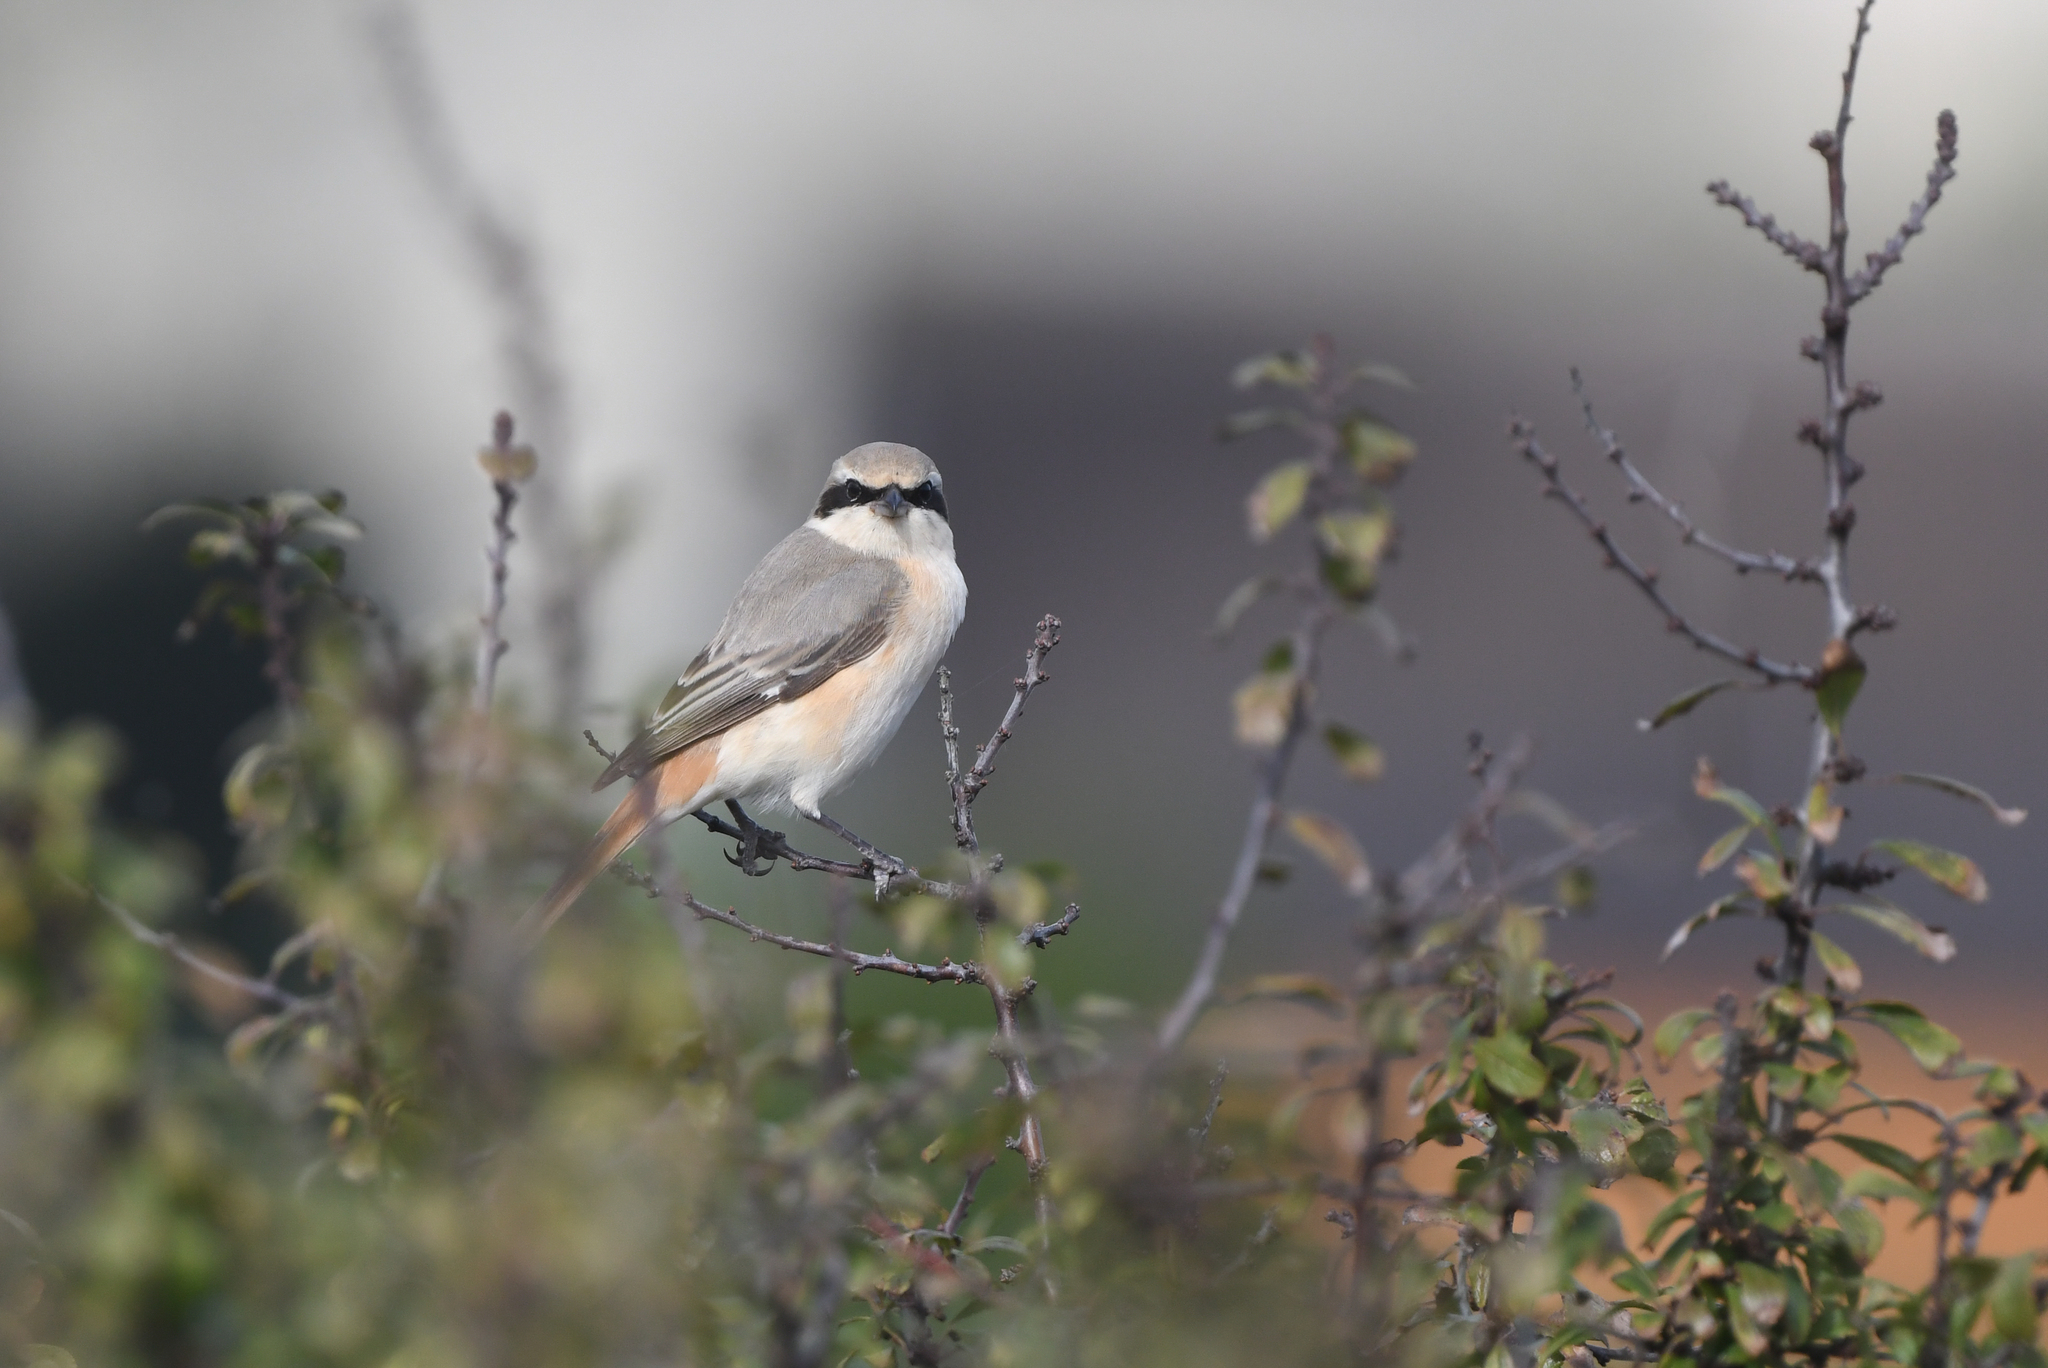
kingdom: Animalia
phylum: Chordata
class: Aves
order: Passeriformes
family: Laniidae
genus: Lanius
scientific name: Lanius isabellinus
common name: Isabelline shrike
